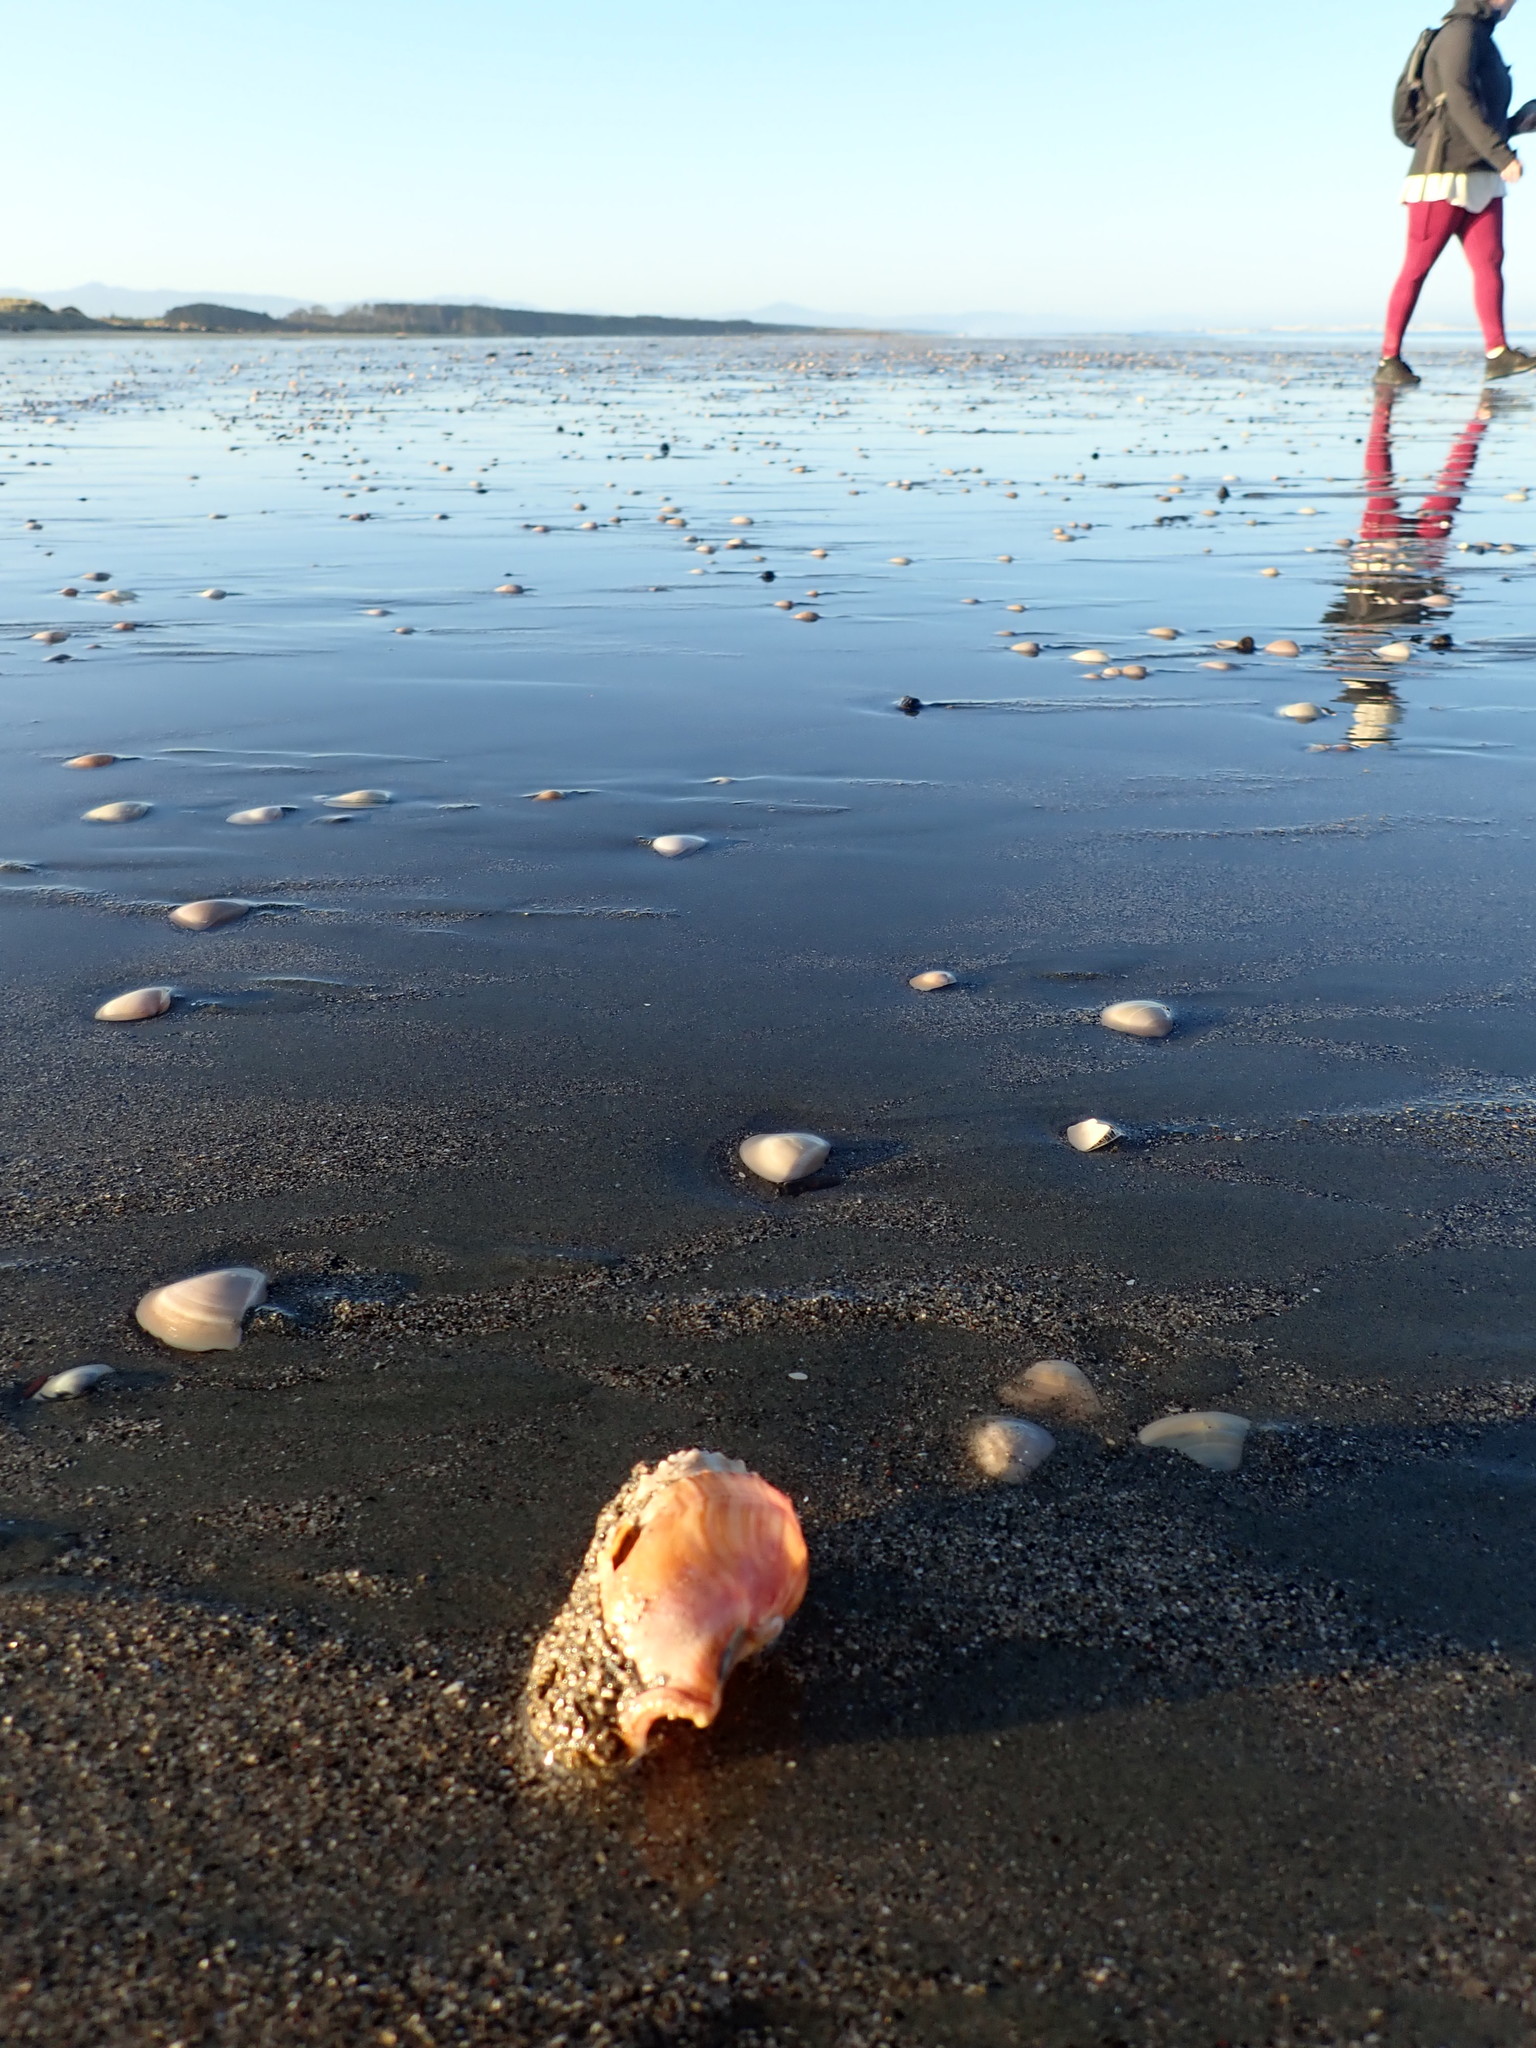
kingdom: Animalia
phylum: Annelida
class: Polychaeta
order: Sabellida
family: Sabellariidae
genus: Neosabellaria
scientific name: Neosabellaria kaiparaensis
